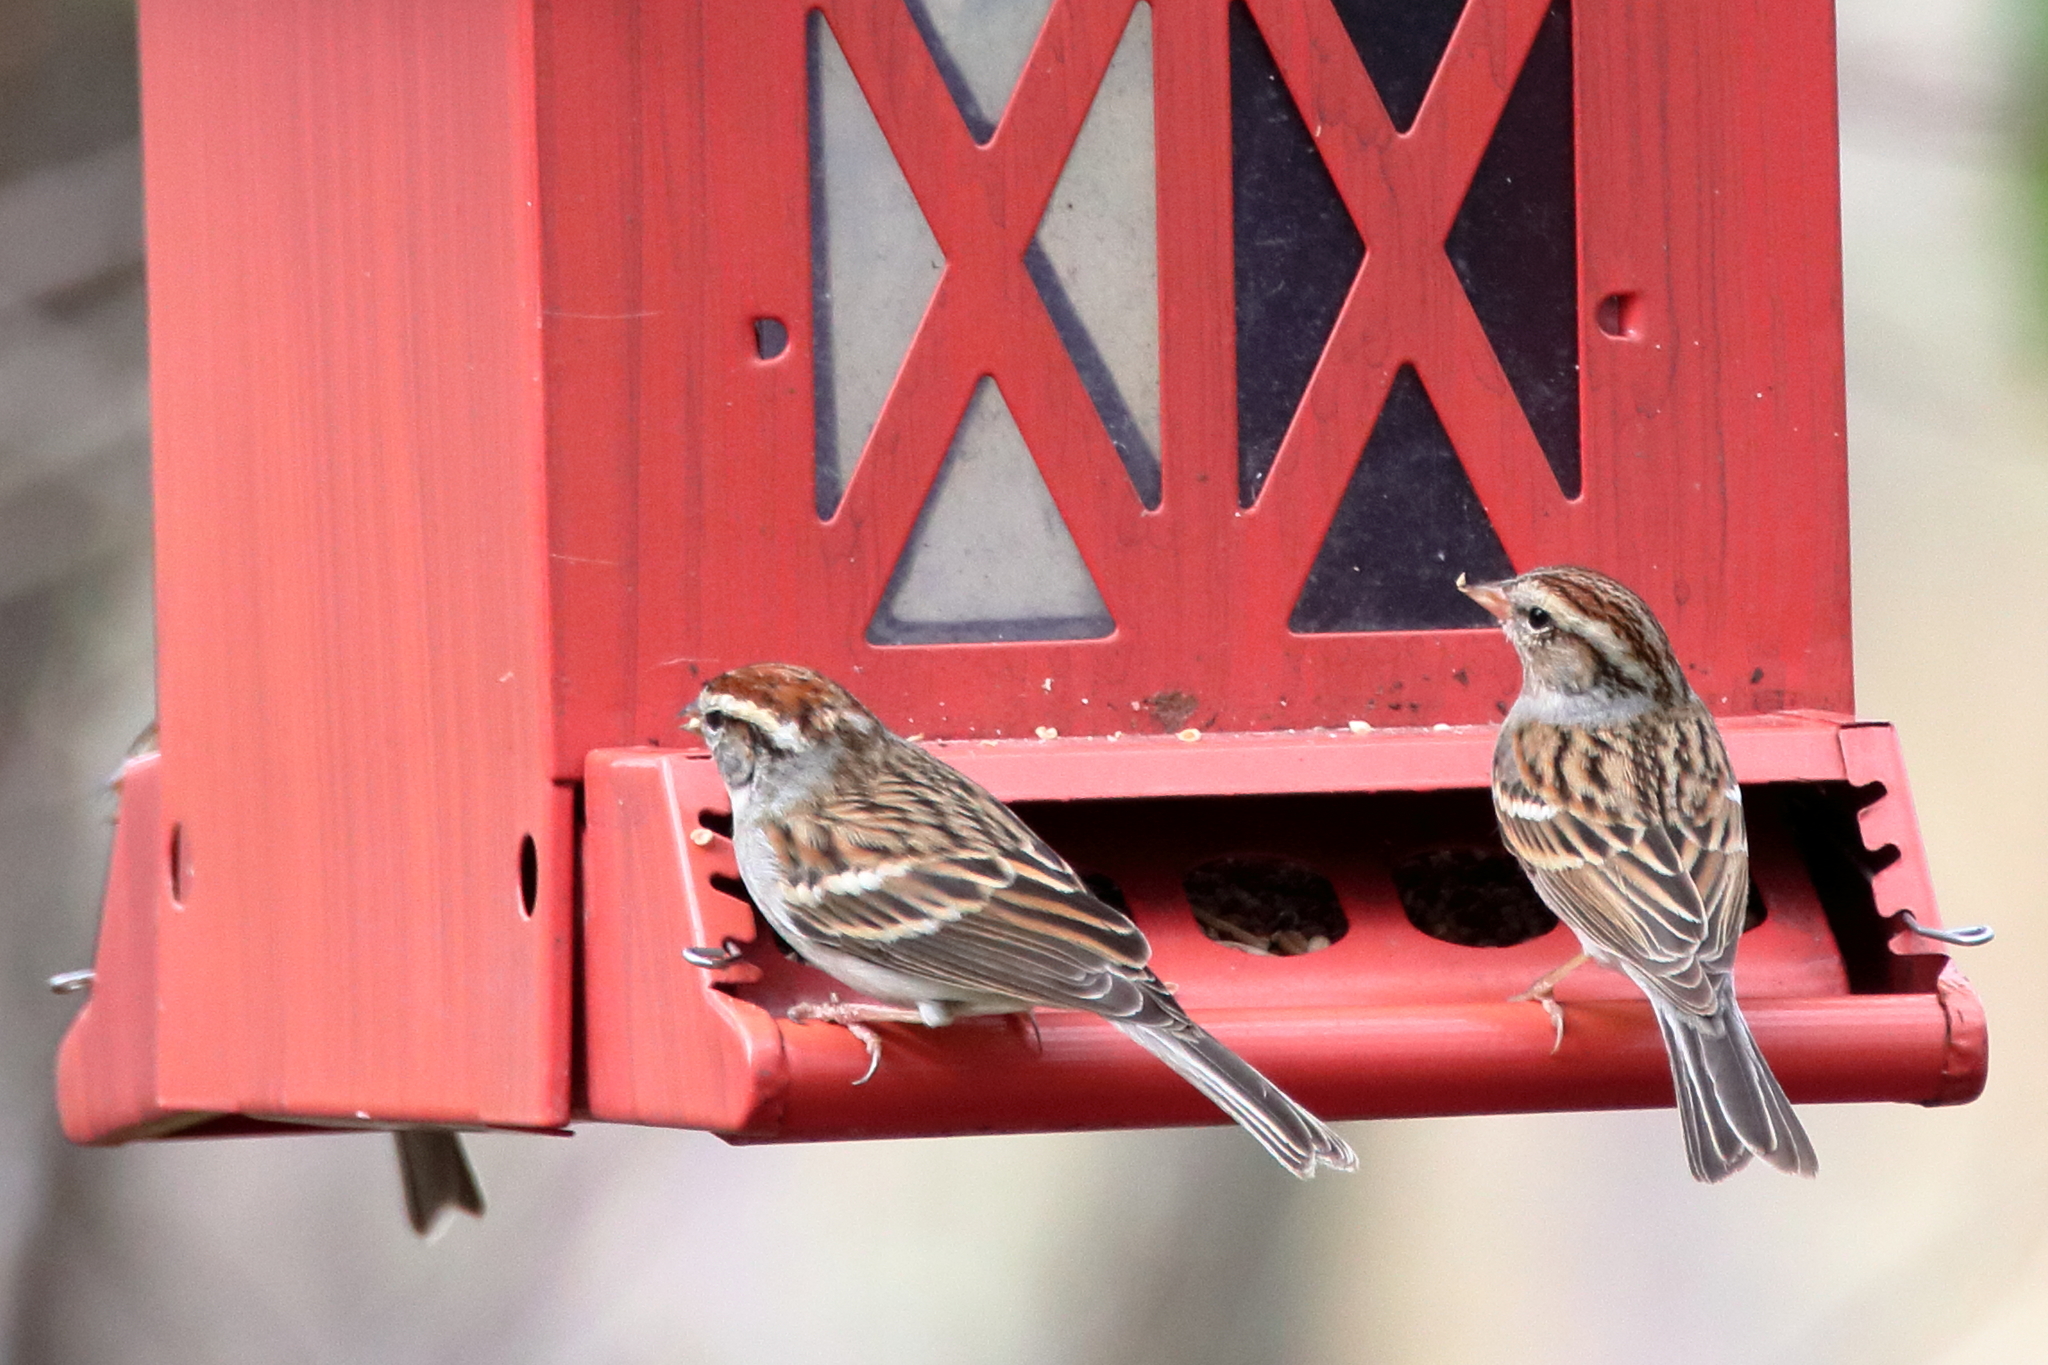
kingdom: Animalia
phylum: Chordata
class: Aves
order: Passeriformes
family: Passerellidae
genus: Spizella
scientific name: Spizella passerina
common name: Chipping sparrow
